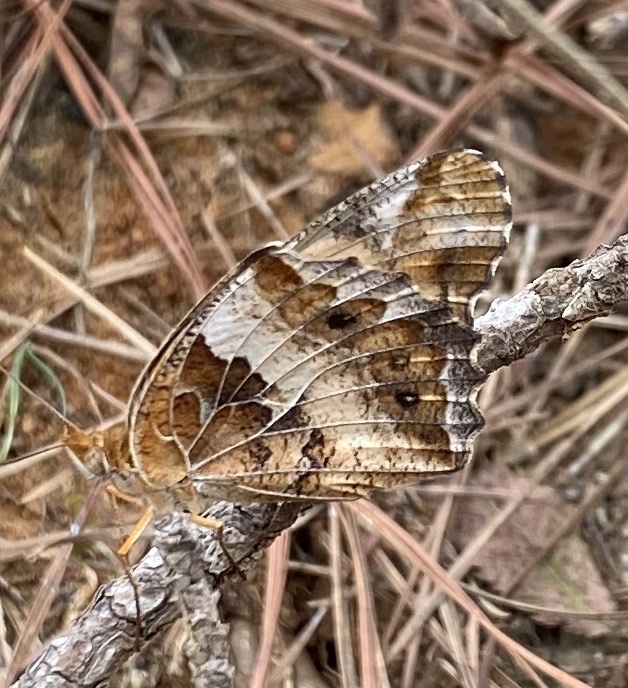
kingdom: Animalia
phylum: Arthropoda
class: Insecta
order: Lepidoptera
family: Nymphalidae
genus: Euptoieta
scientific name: Euptoieta claudia
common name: Variegated fritillary
